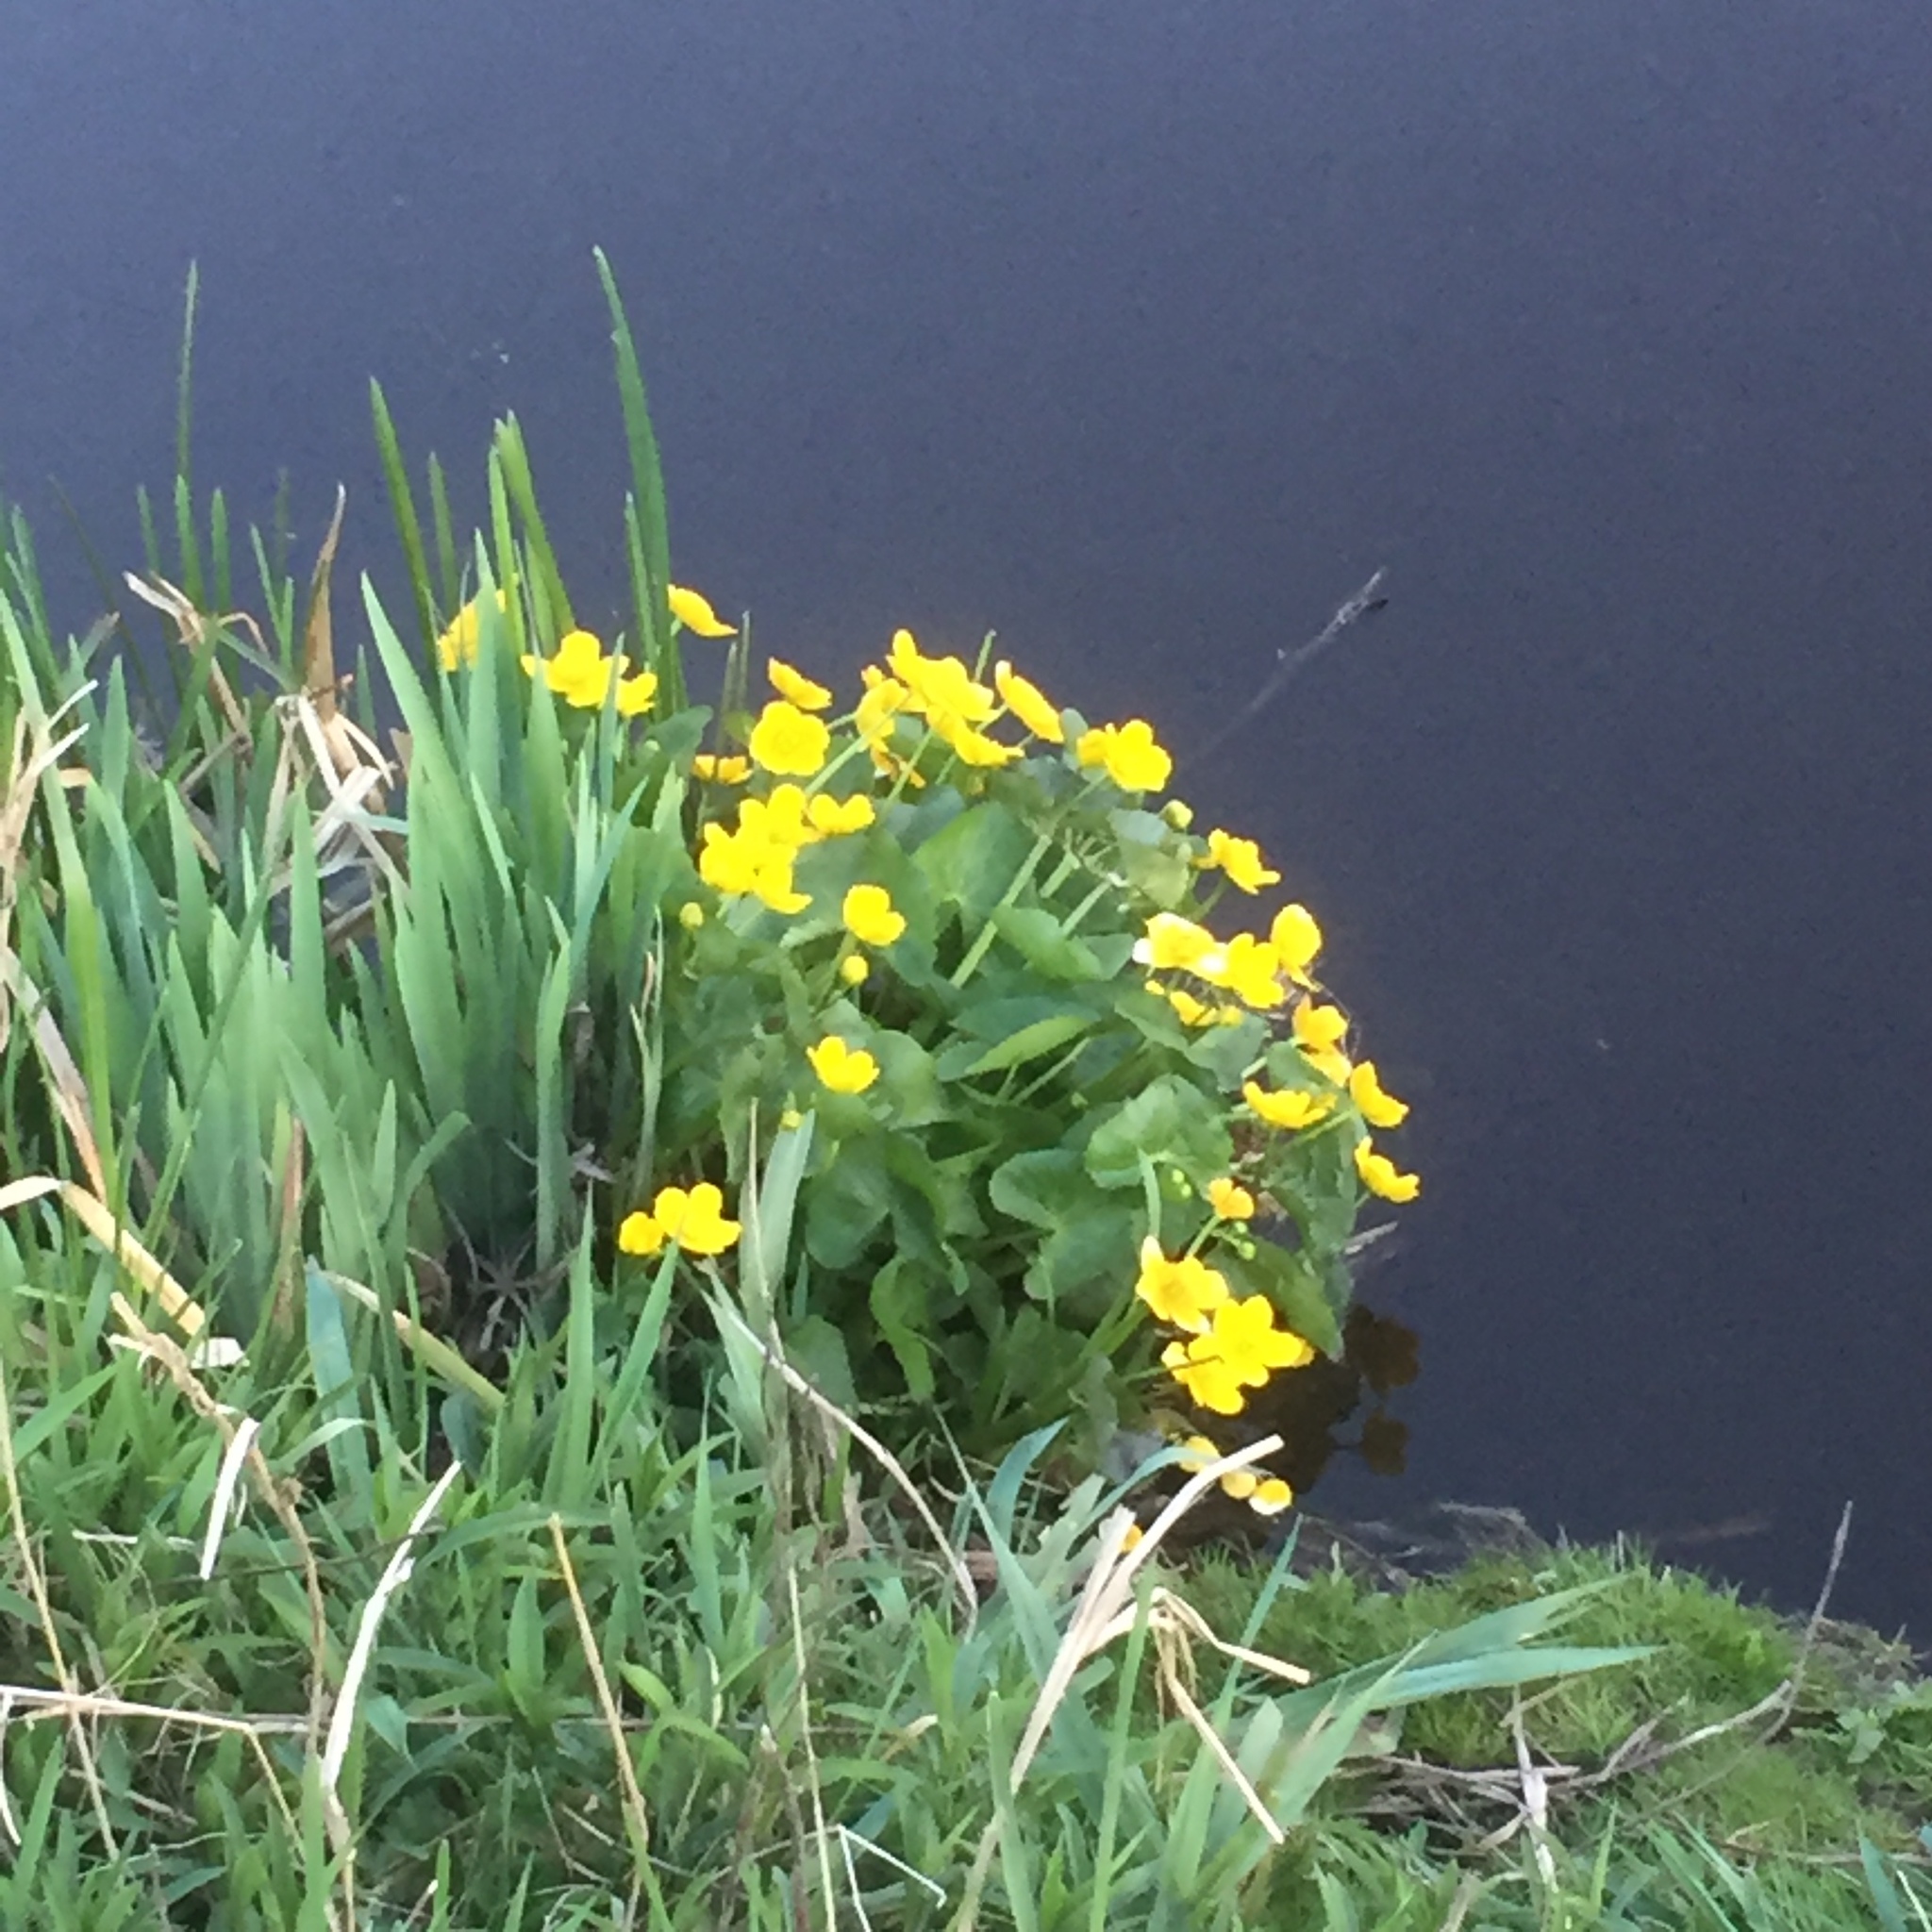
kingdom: Plantae
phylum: Tracheophyta
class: Magnoliopsida
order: Ranunculales
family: Ranunculaceae
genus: Caltha
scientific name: Caltha palustris
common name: Marsh marigold
